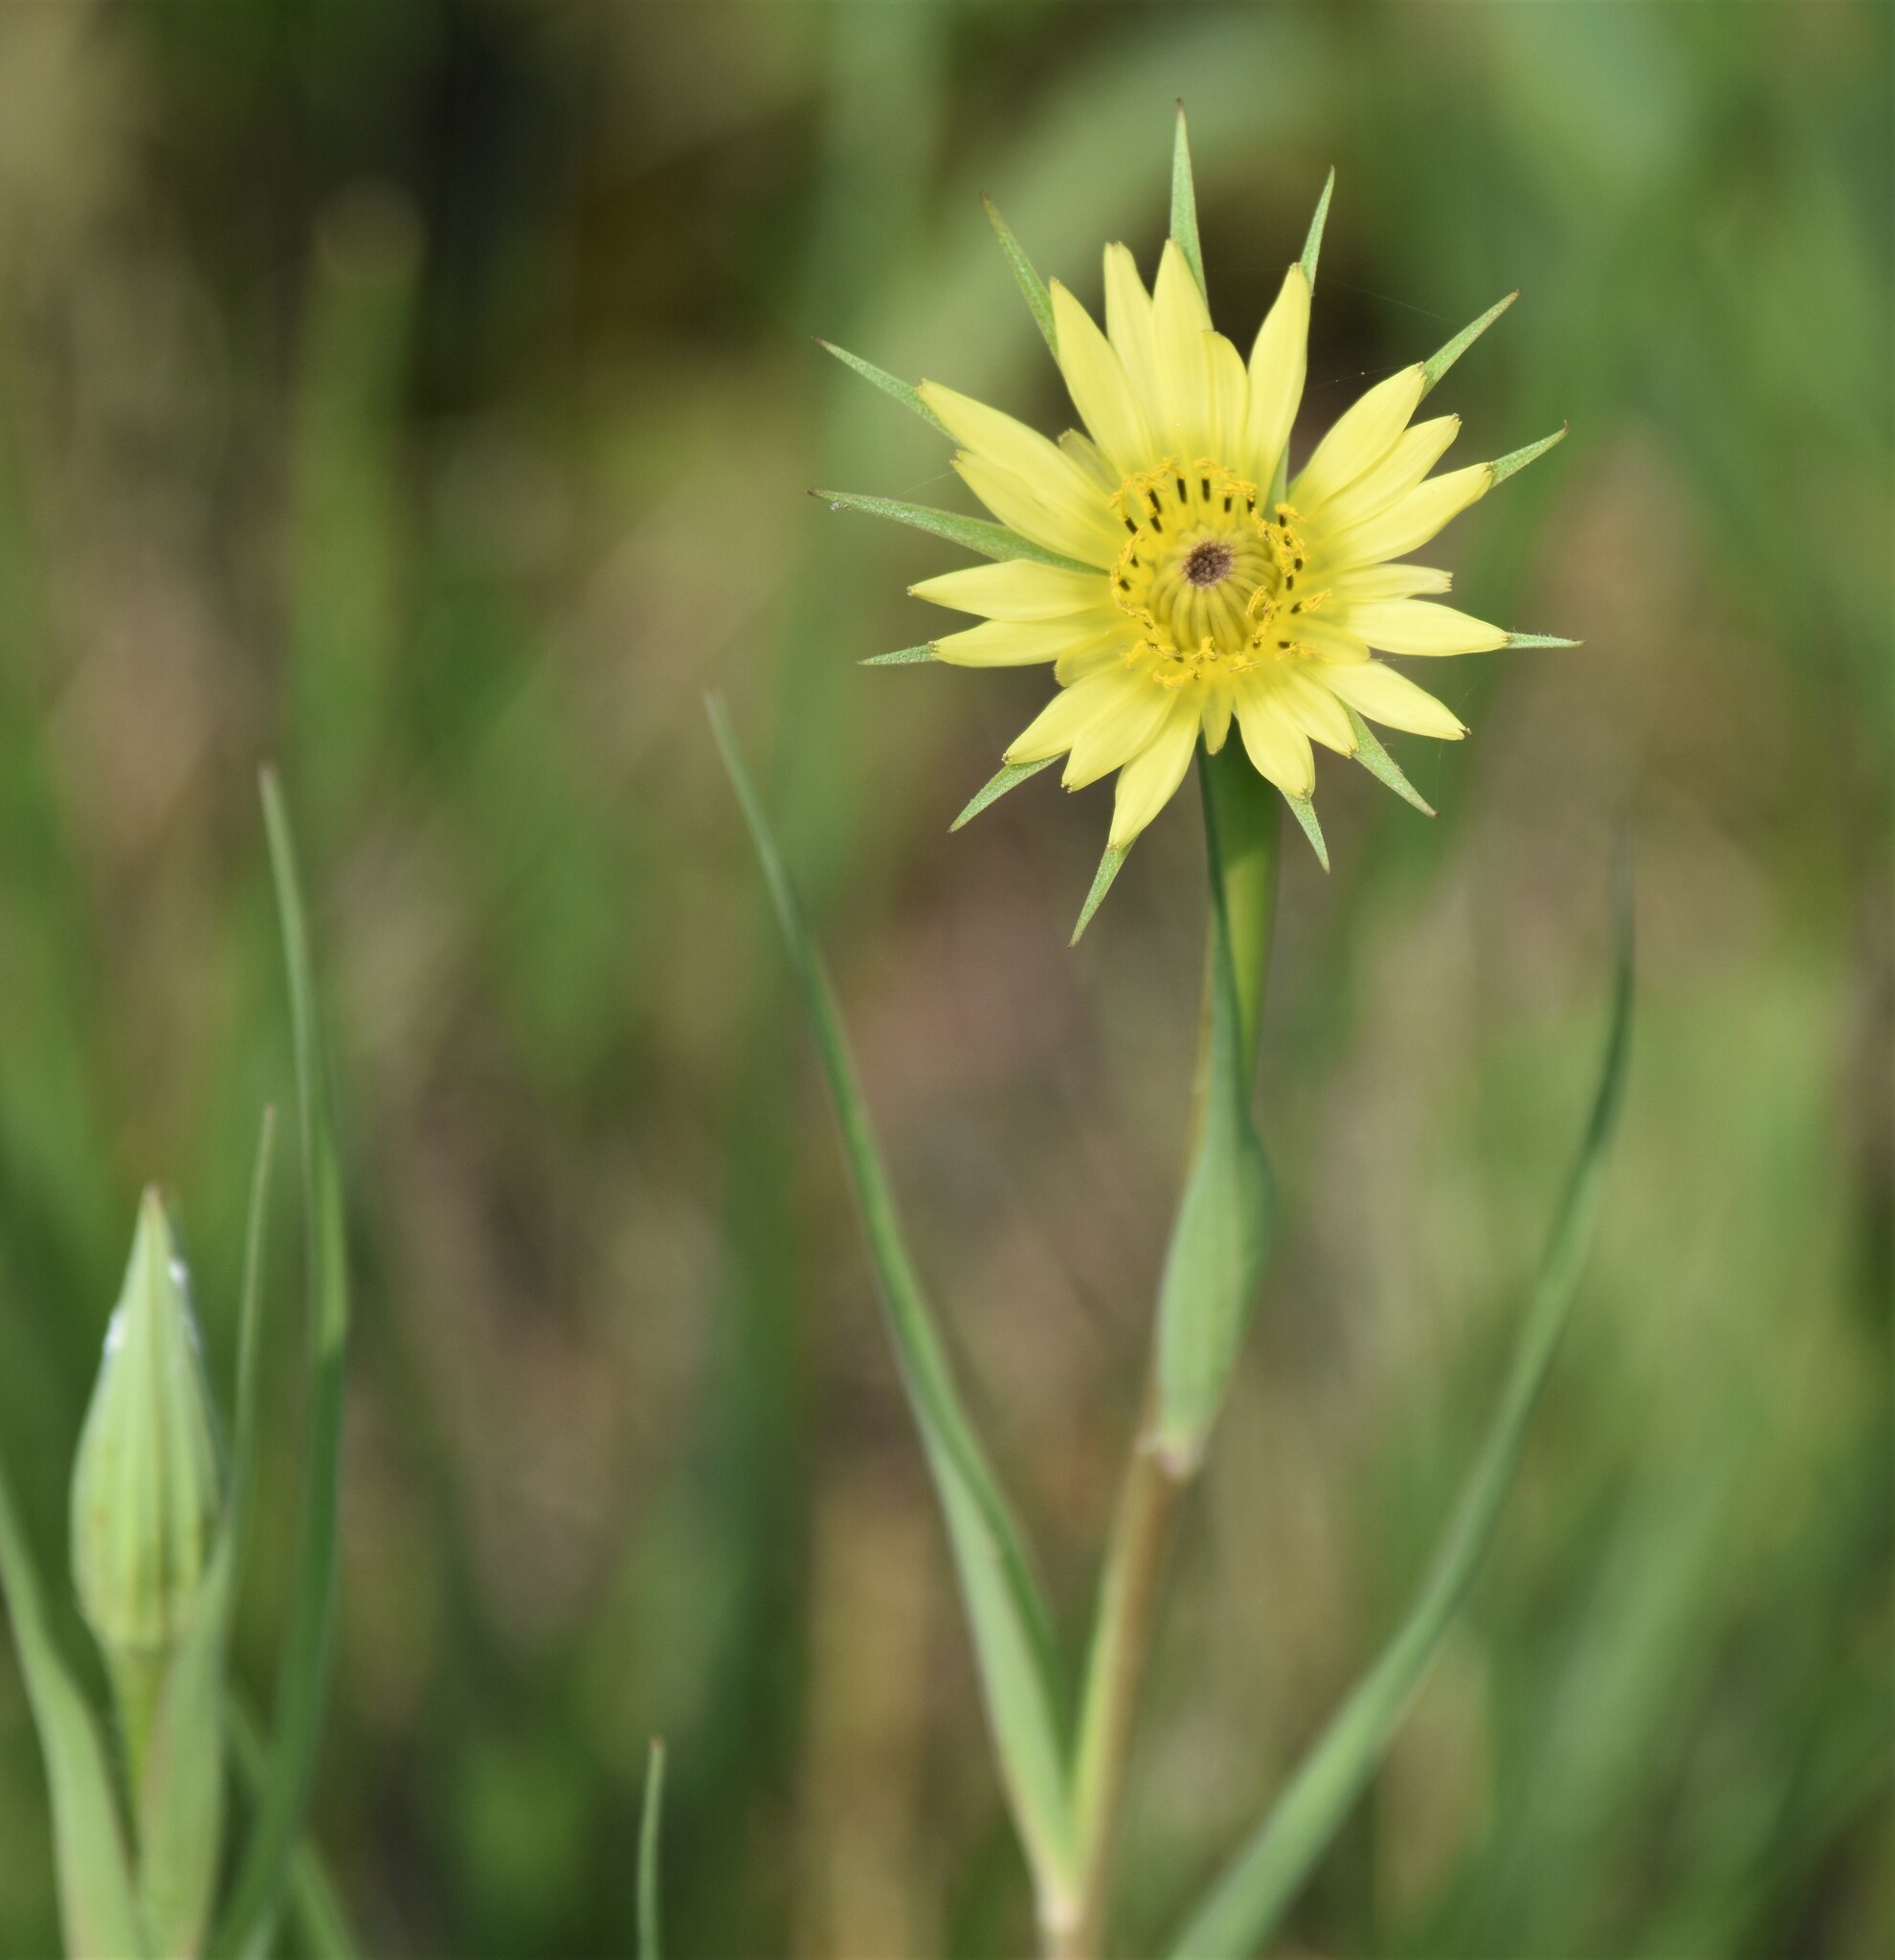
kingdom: Plantae
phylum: Tracheophyta
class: Magnoliopsida
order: Asterales
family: Asteraceae
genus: Tragopogon
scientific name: Tragopogon dubius
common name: Yellow salsify
